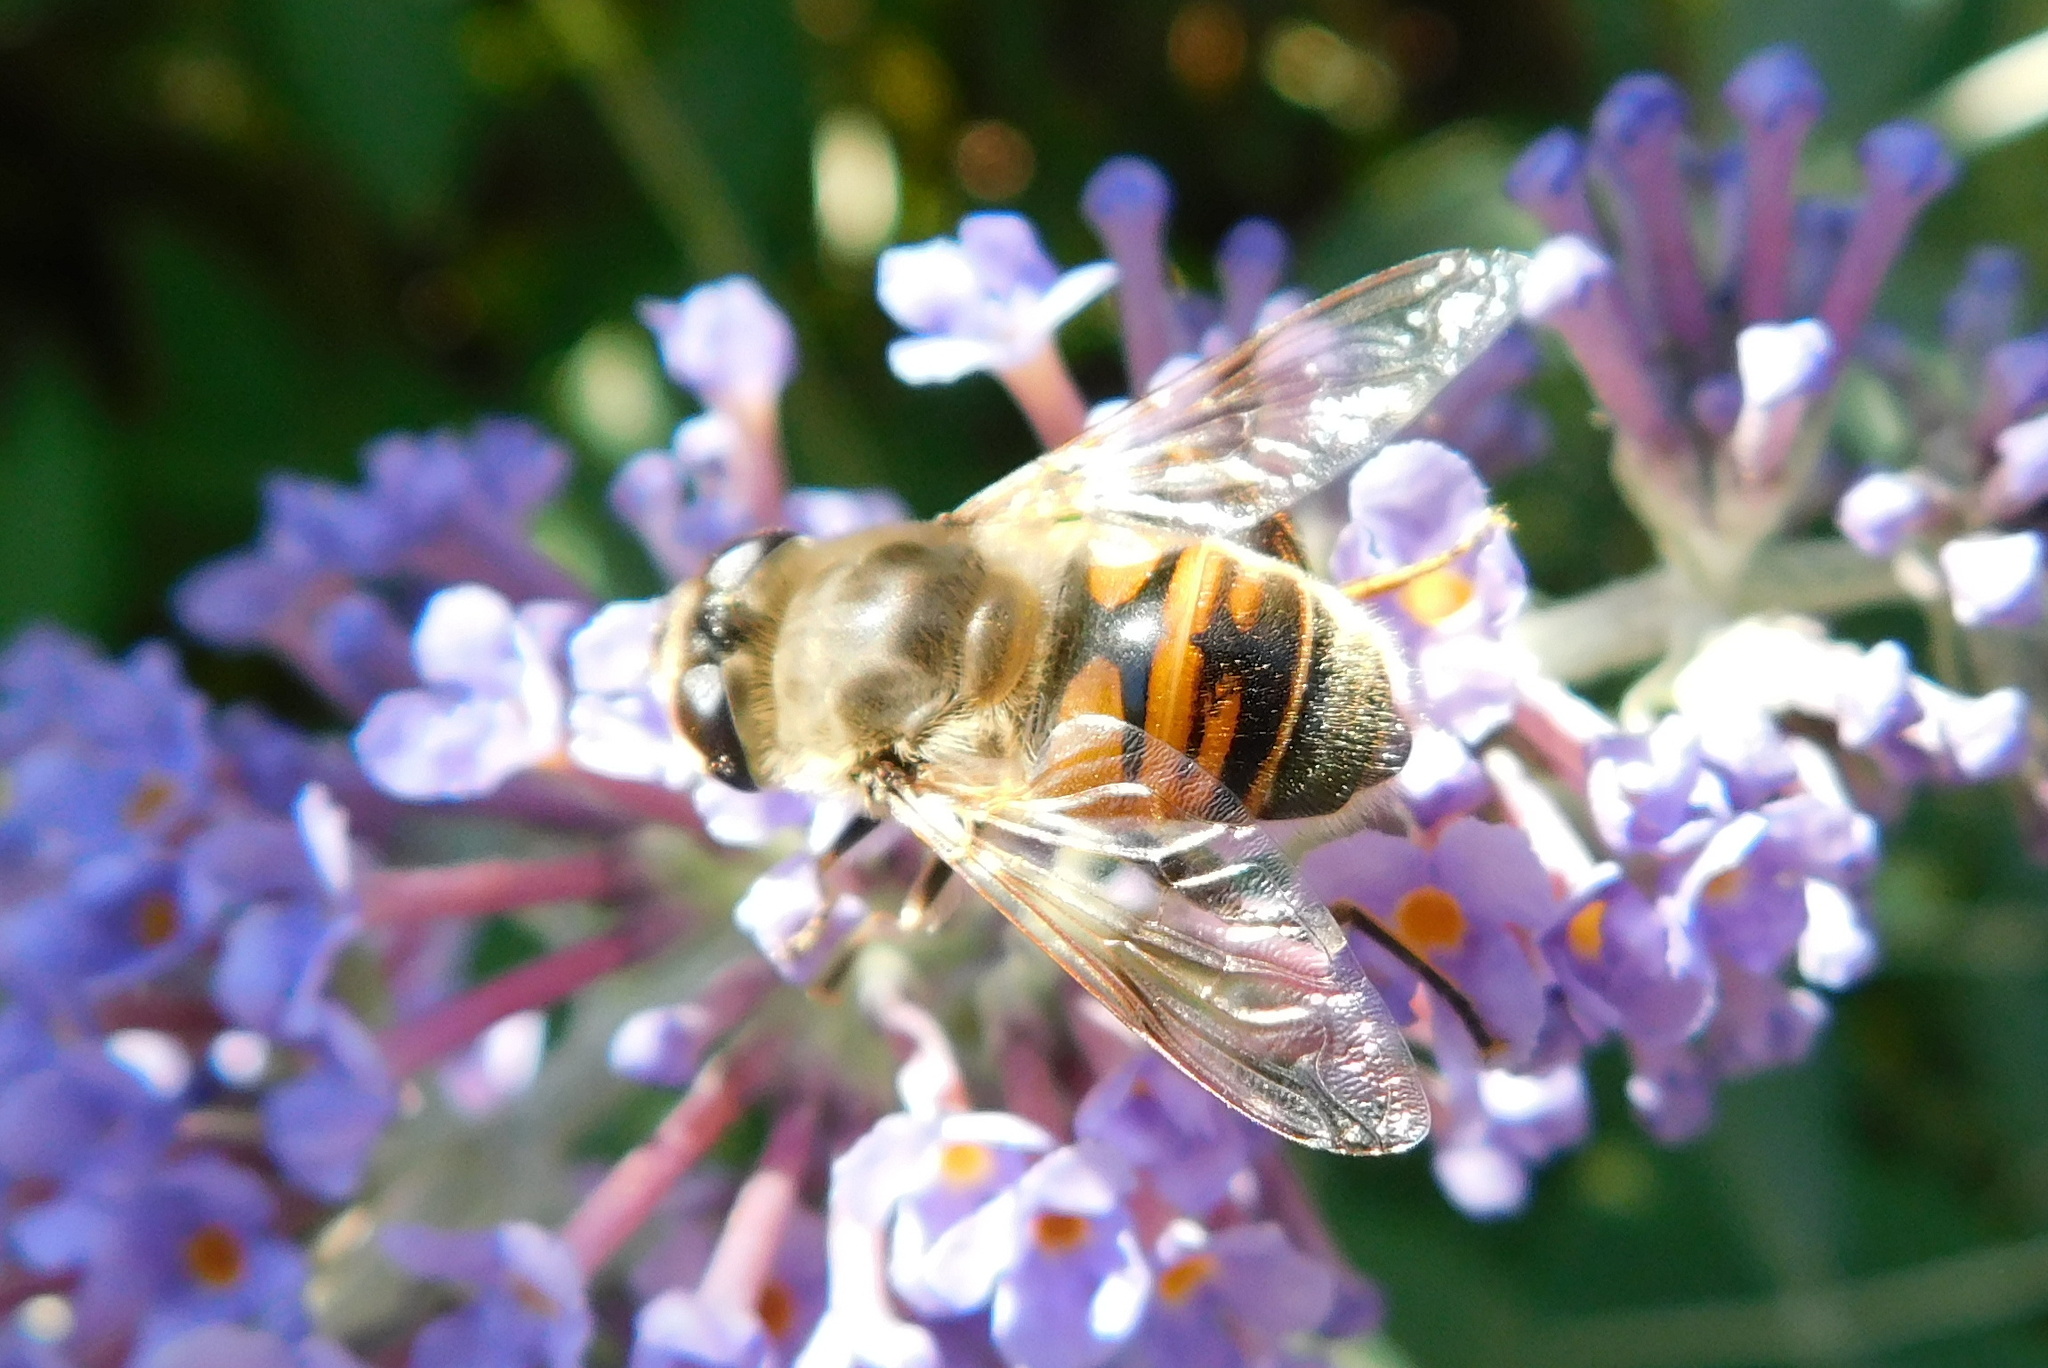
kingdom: Animalia
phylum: Arthropoda
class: Insecta
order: Diptera
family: Syrphidae
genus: Eristalis
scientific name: Eristalis tenax
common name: Drone fly
